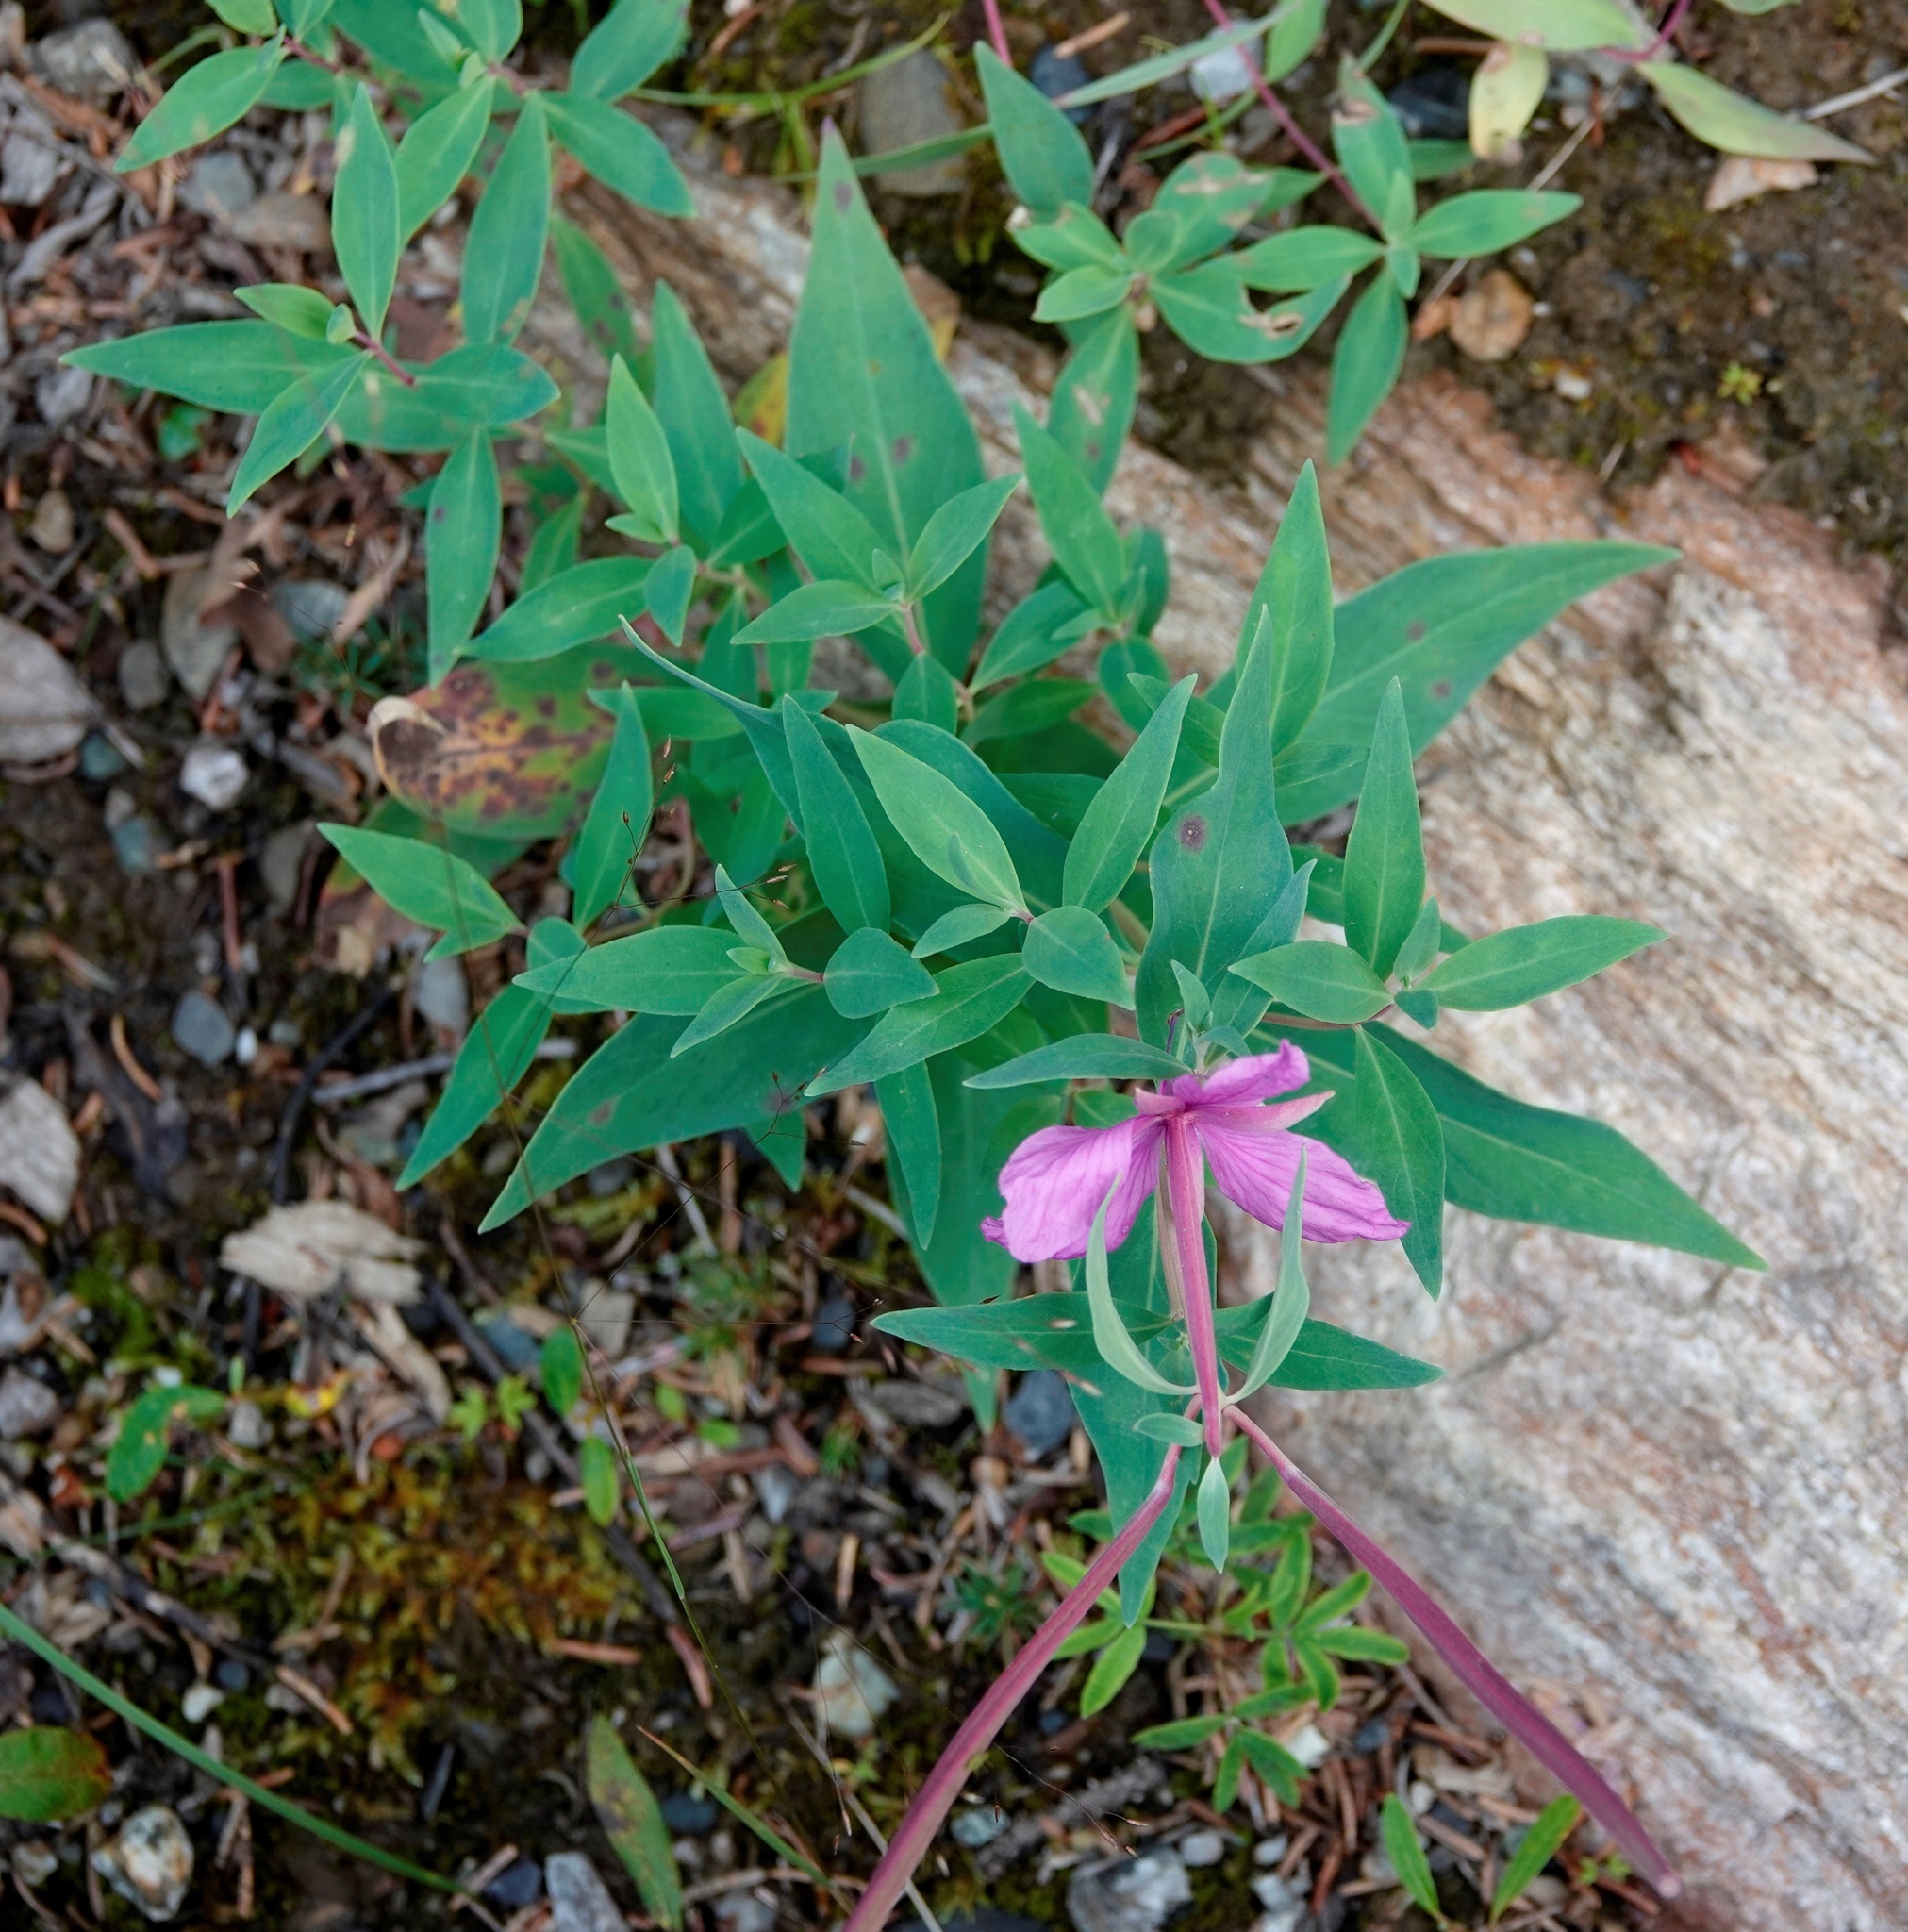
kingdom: Plantae
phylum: Tracheophyta
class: Magnoliopsida
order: Myrtales
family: Onagraceae
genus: Chamaenerion
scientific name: Chamaenerion latifolium
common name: Dwarf fireweed
